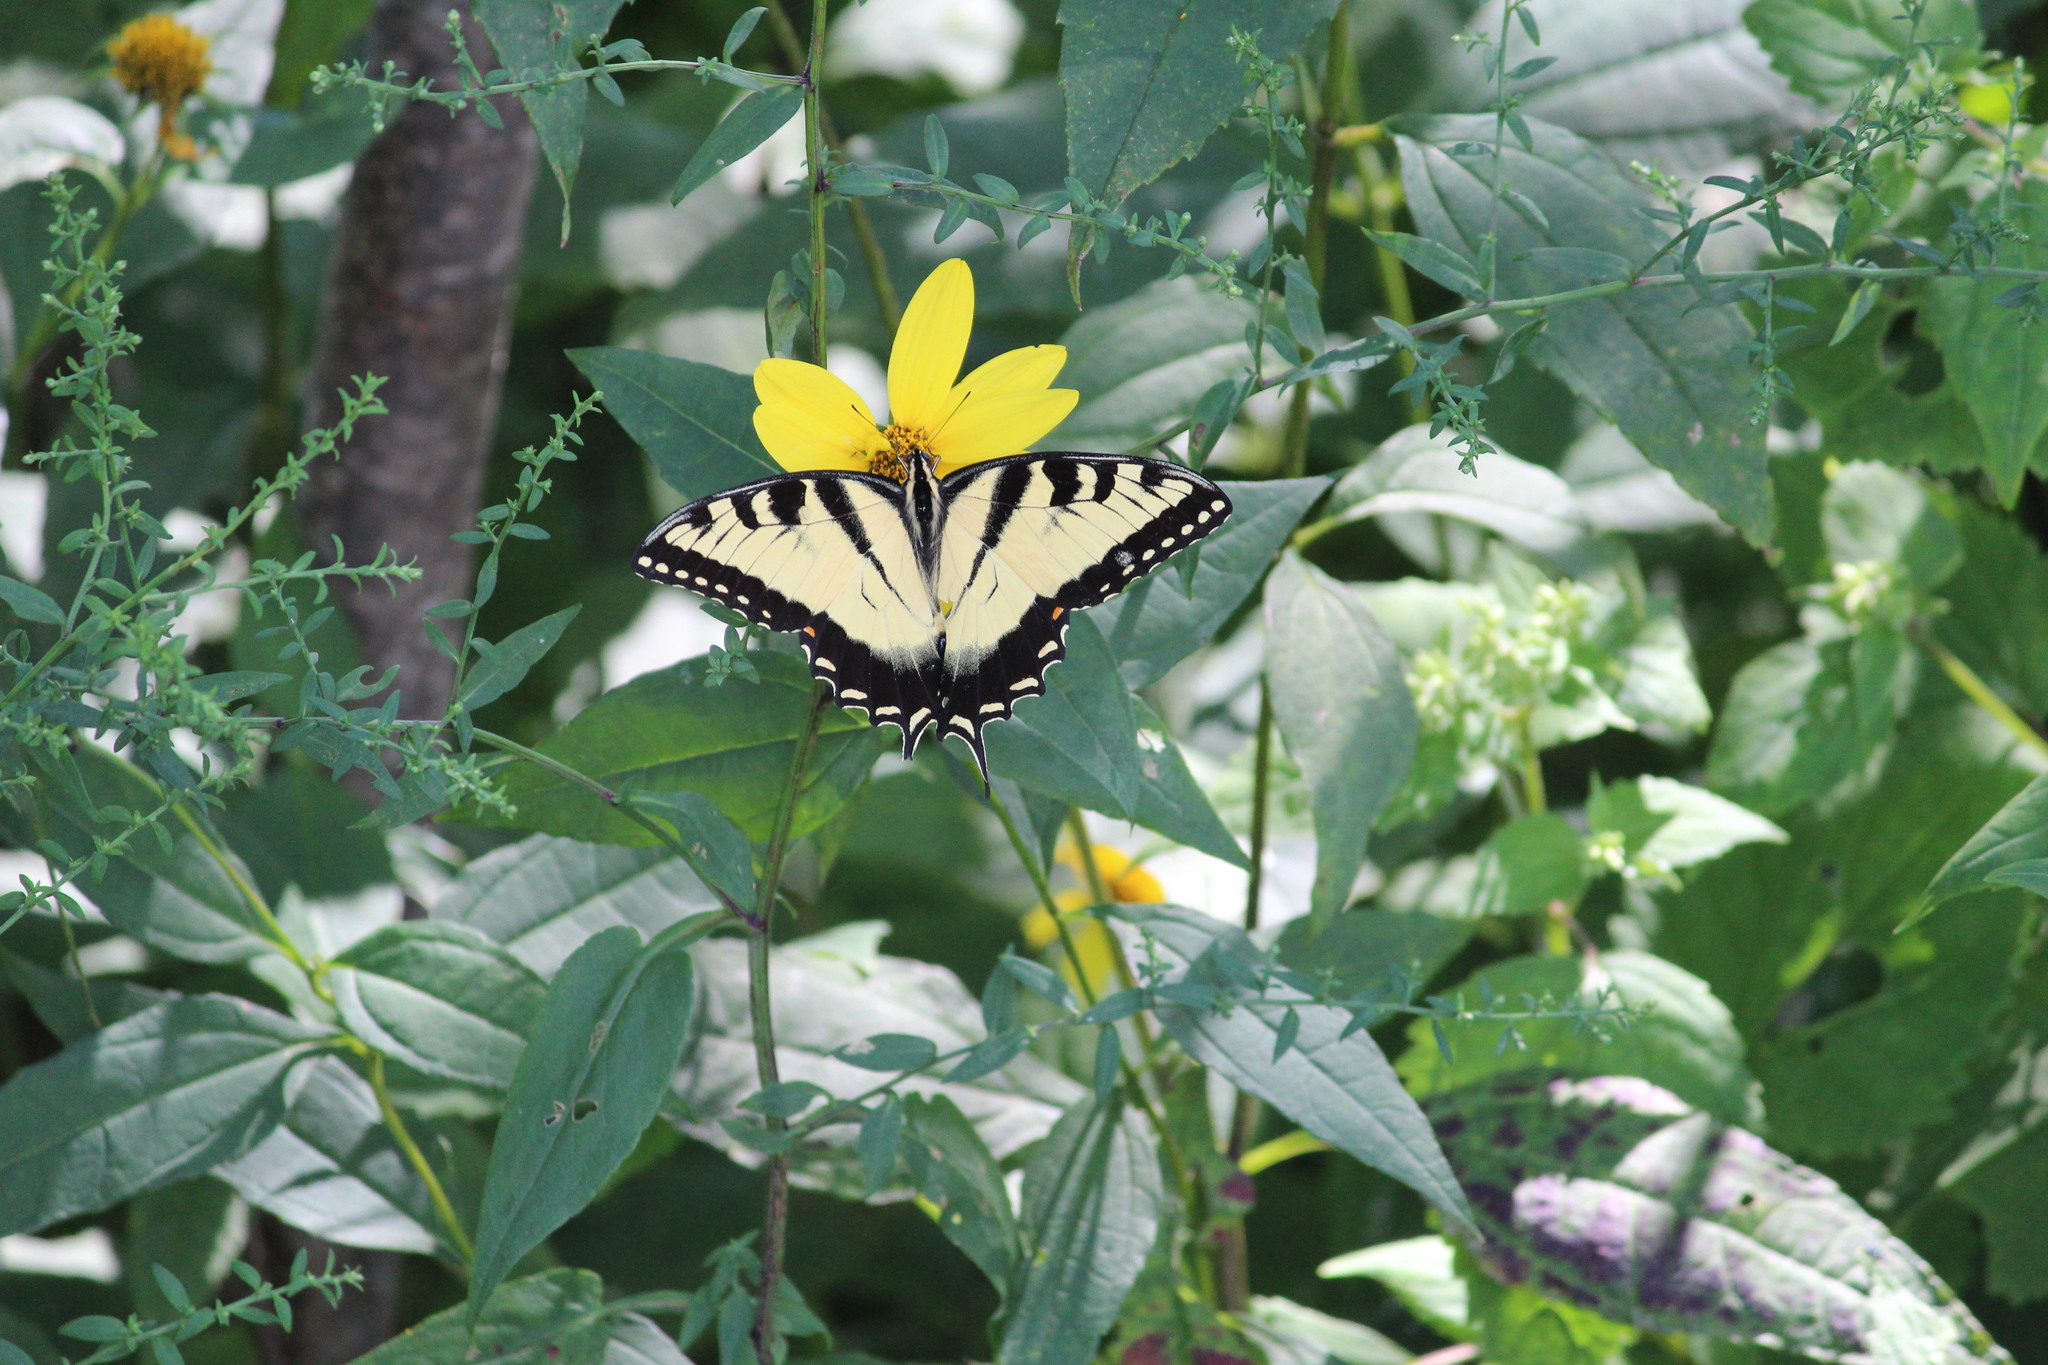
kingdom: Animalia
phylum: Arthropoda
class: Insecta
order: Lepidoptera
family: Papilionidae
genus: Papilio
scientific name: Papilio glaucus
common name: Tiger swallowtail
